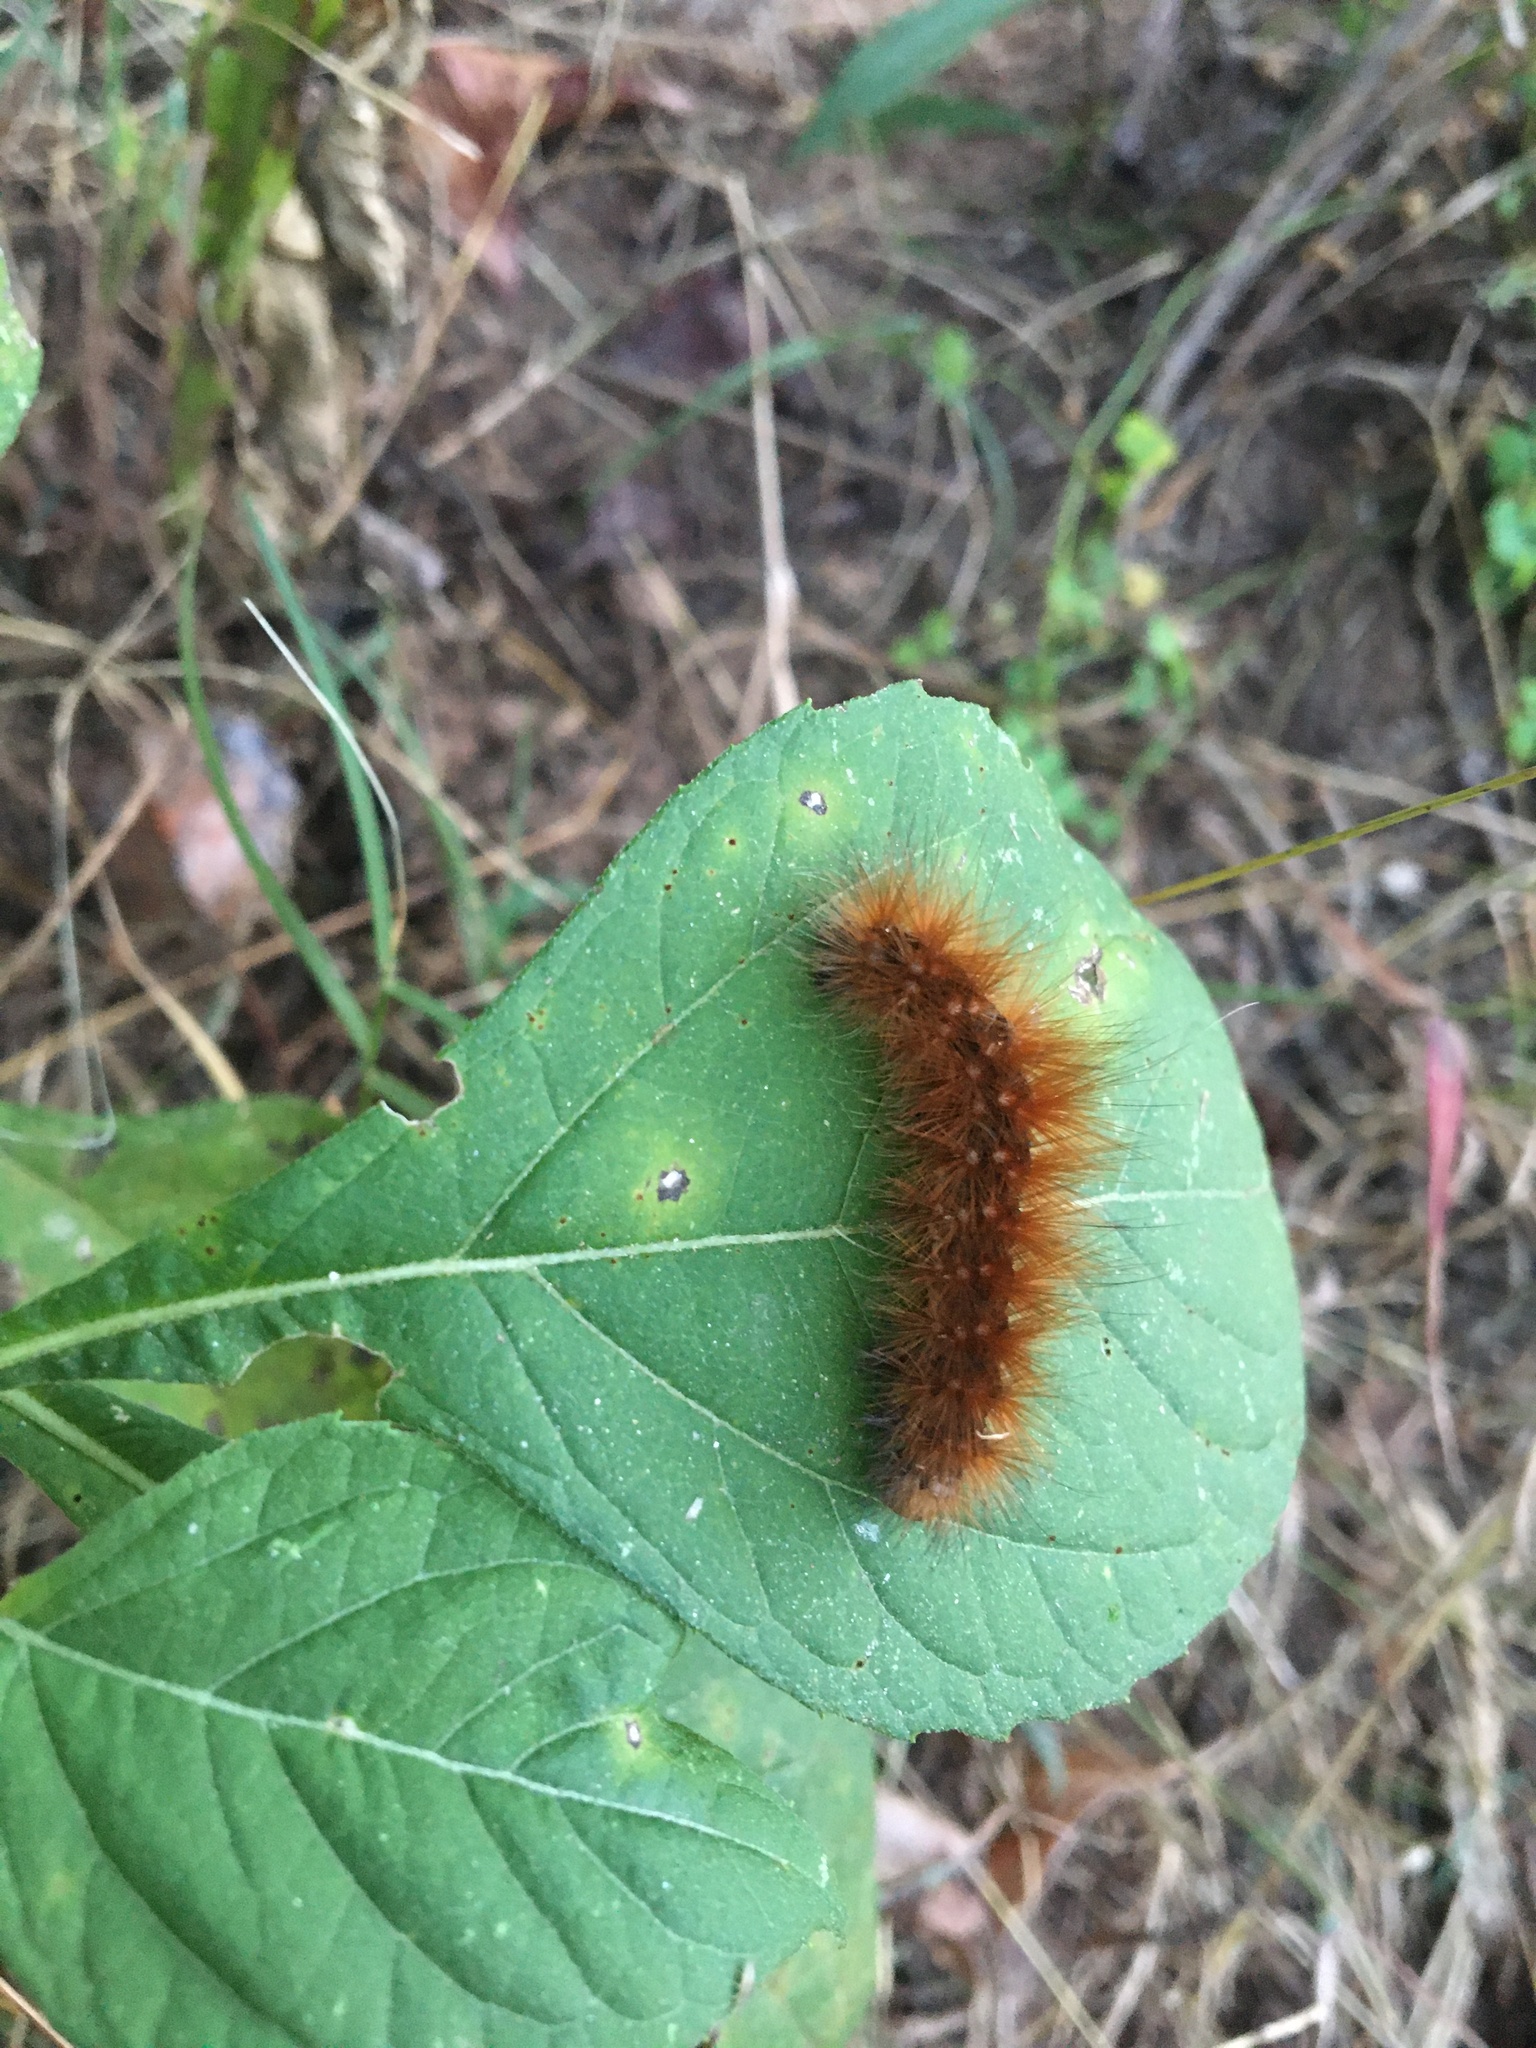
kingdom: Animalia
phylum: Arthropoda
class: Insecta
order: Lepidoptera
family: Erebidae
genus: Spilosoma
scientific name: Spilosoma virginica
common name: Virginia tiger moth
